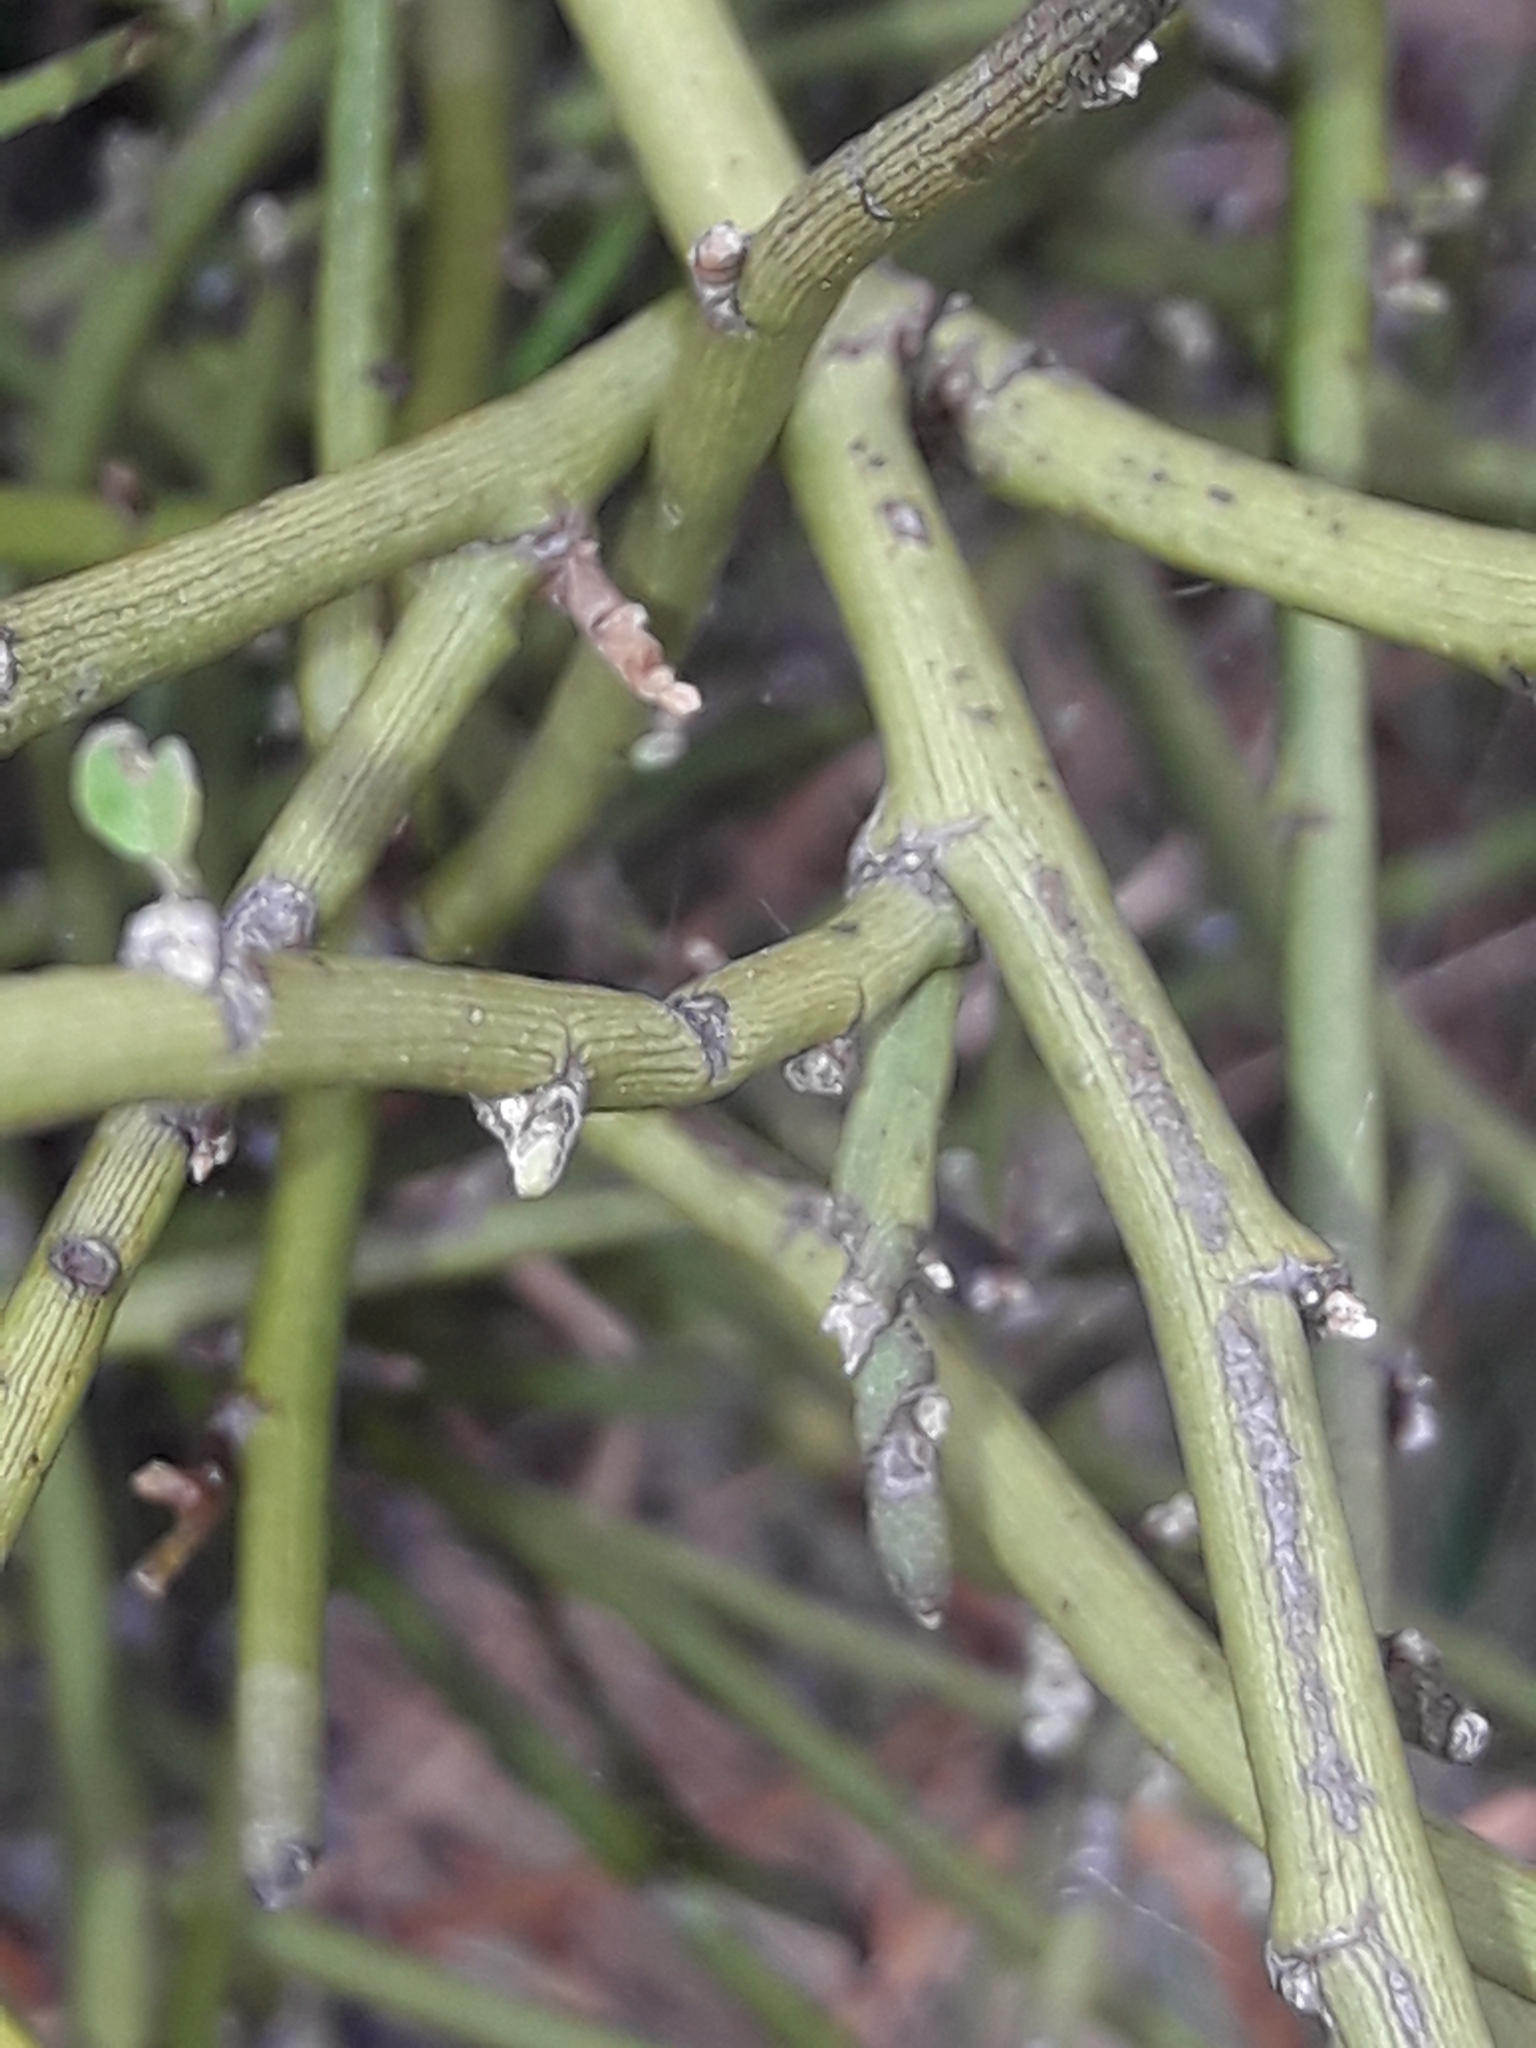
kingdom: Plantae
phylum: Tracheophyta
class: Magnoliopsida
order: Fabales
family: Fabaceae
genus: Carmichaelia
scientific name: Carmichaelia petriei
